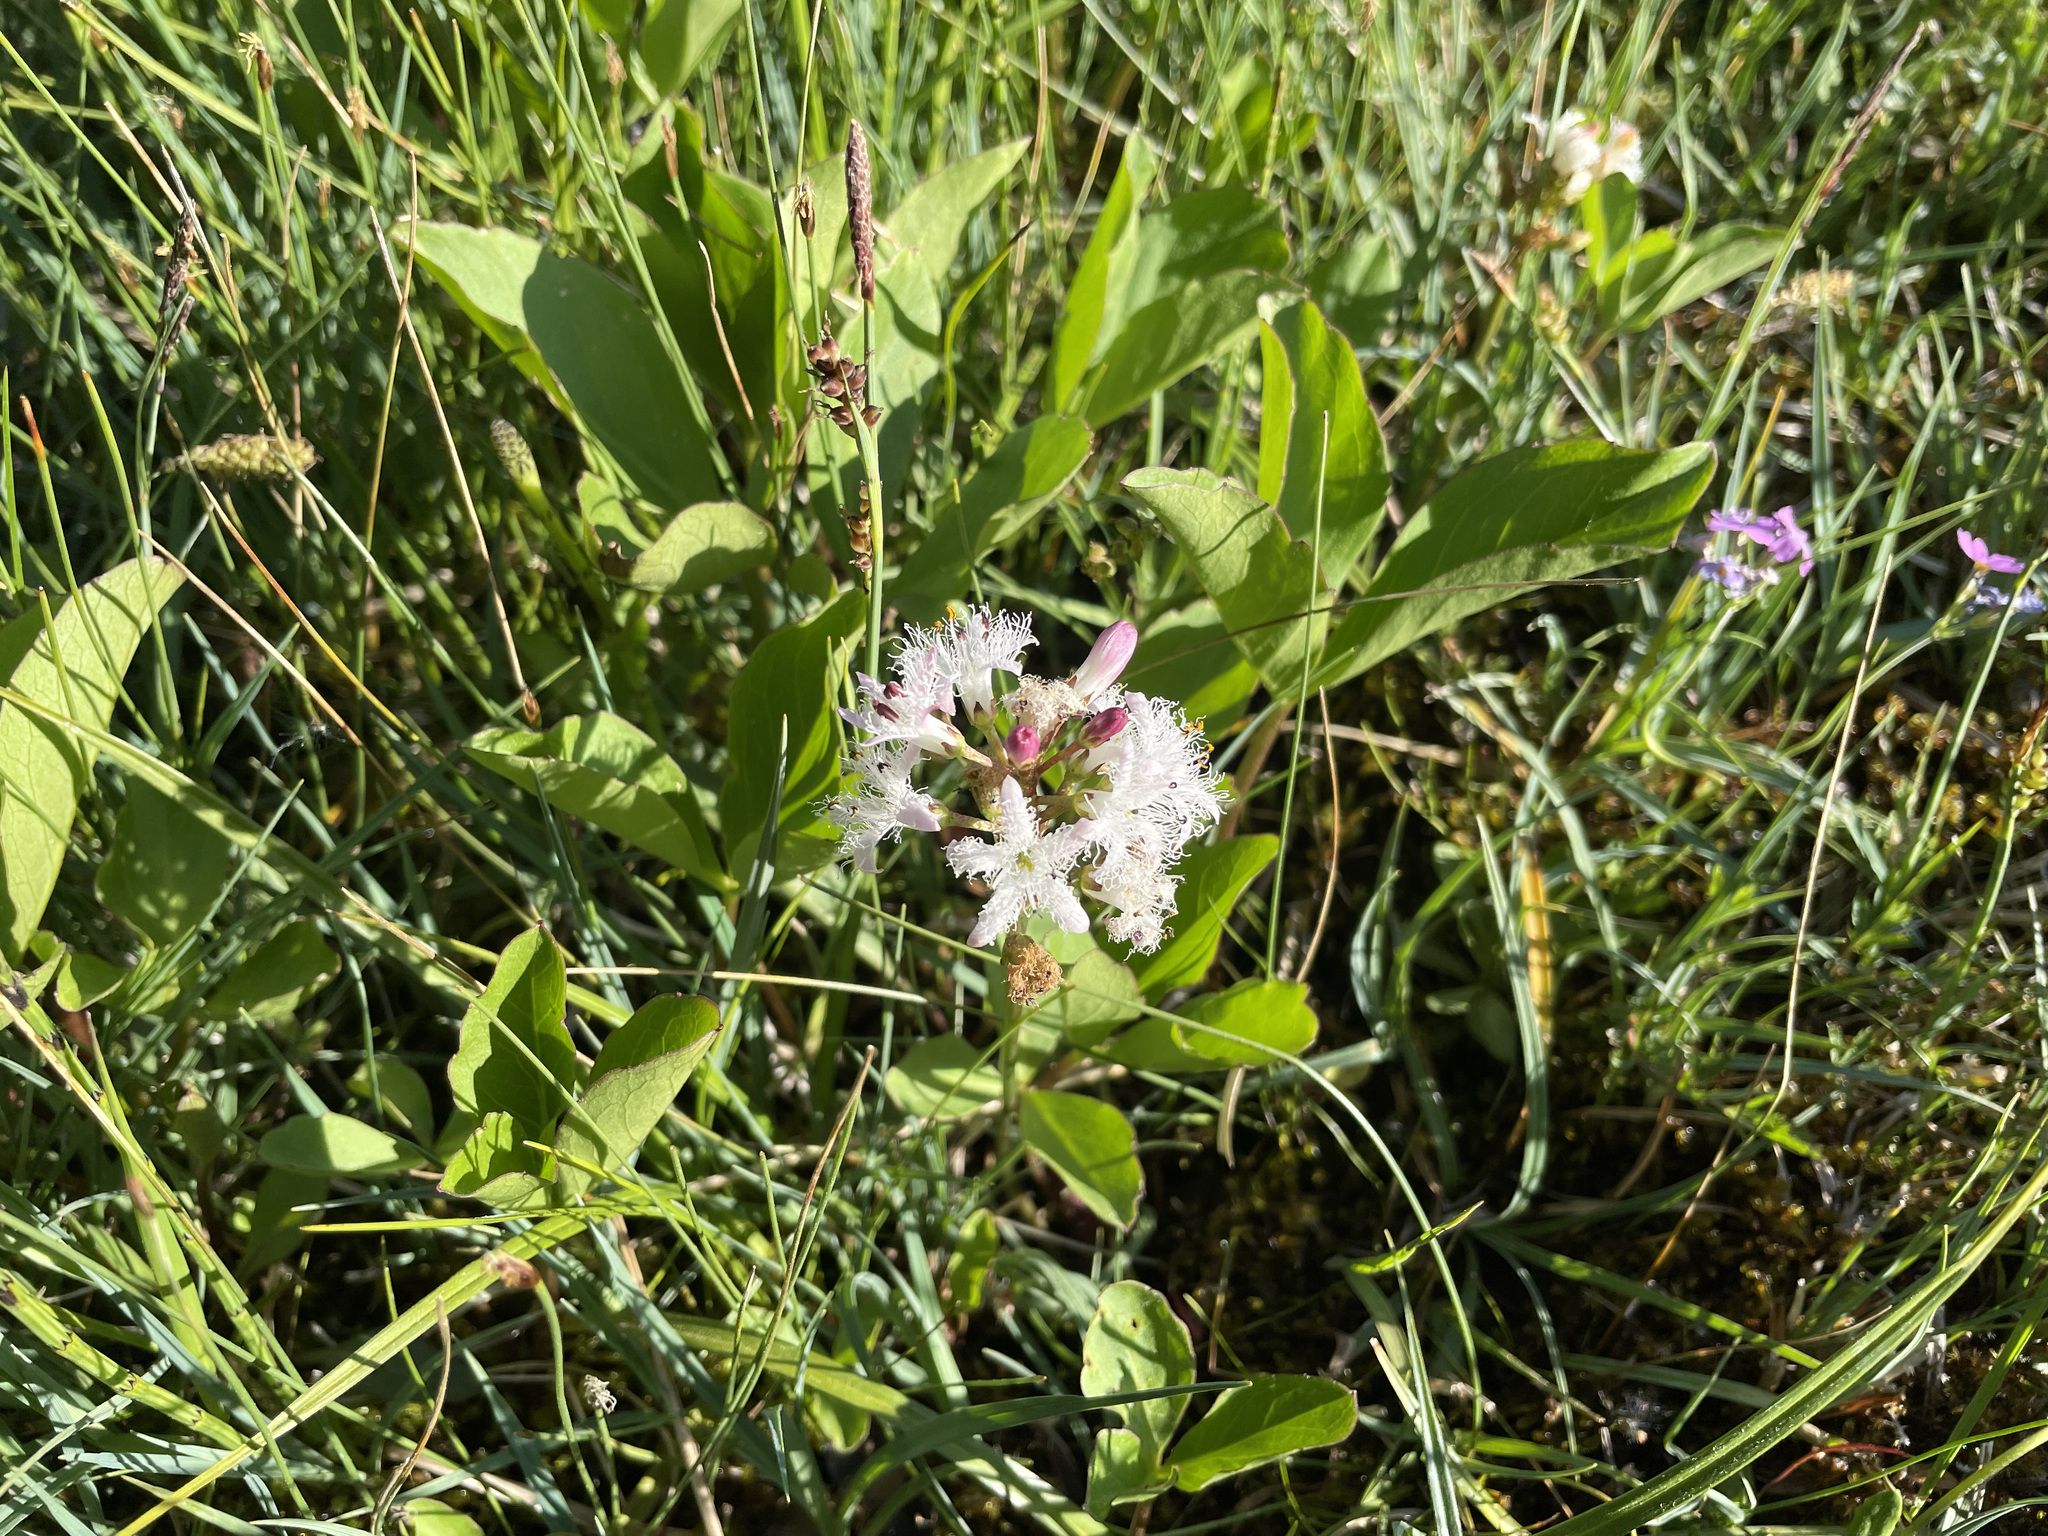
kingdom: Plantae
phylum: Tracheophyta
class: Magnoliopsida
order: Asterales
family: Menyanthaceae
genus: Menyanthes
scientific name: Menyanthes trifoliata
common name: Bogbean
